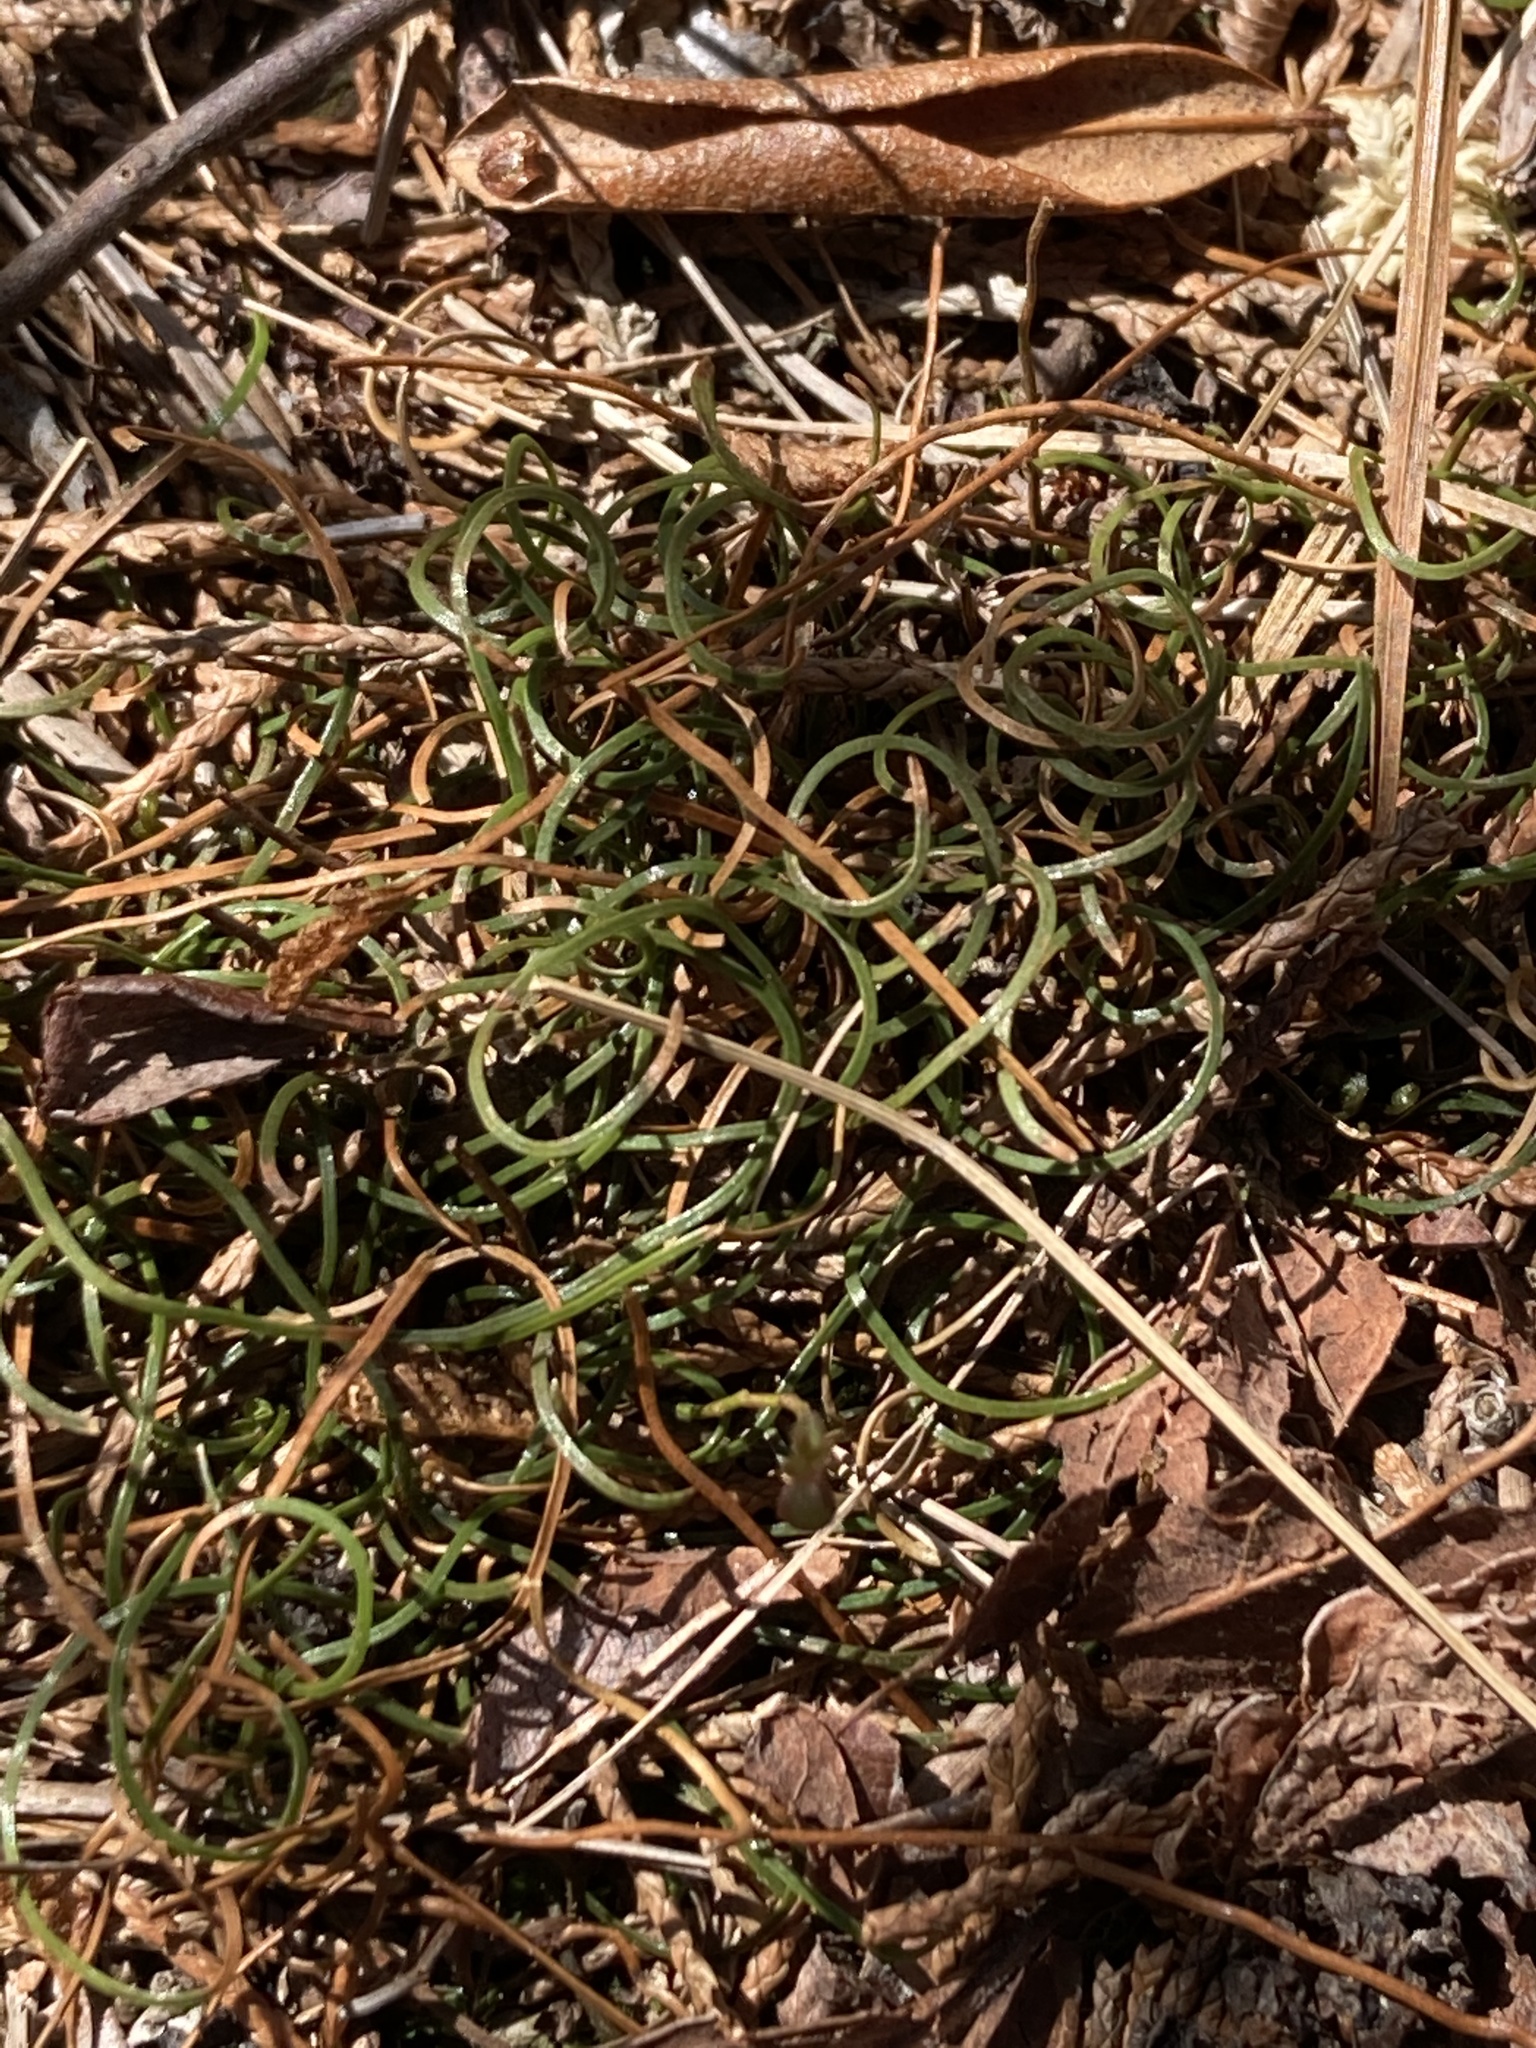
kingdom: Plantae
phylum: Tracheophyta
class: Polypodiopsida
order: Schizaeales
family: Schizaeaceae
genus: Schizaea
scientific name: Schizaea pusilla
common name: Curly-grass fern
